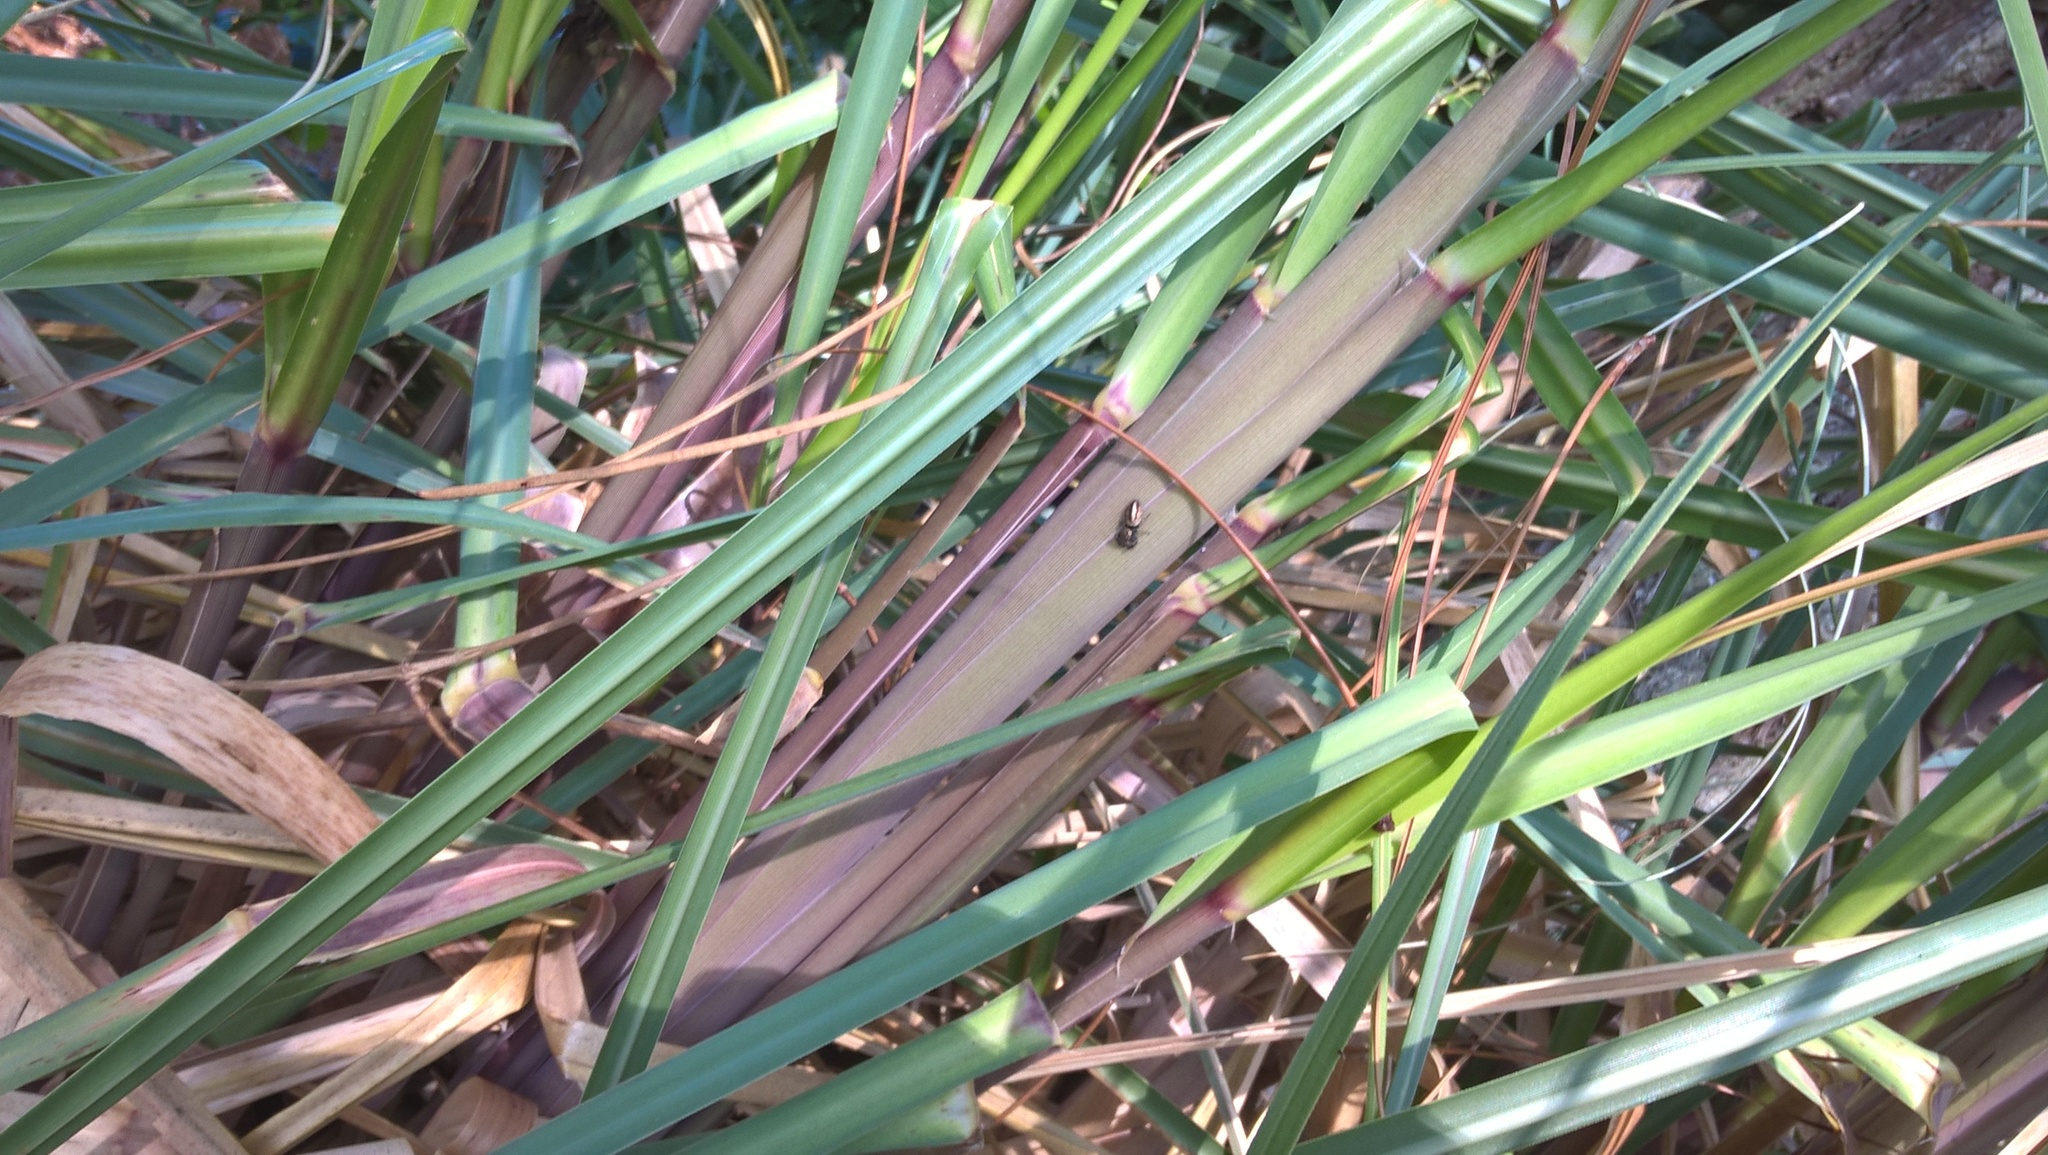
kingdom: Animalia
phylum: Arthropoda
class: Arachnida
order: Araneae
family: Salticidae
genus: Dendryphantes
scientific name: Dendryphantes mordax
